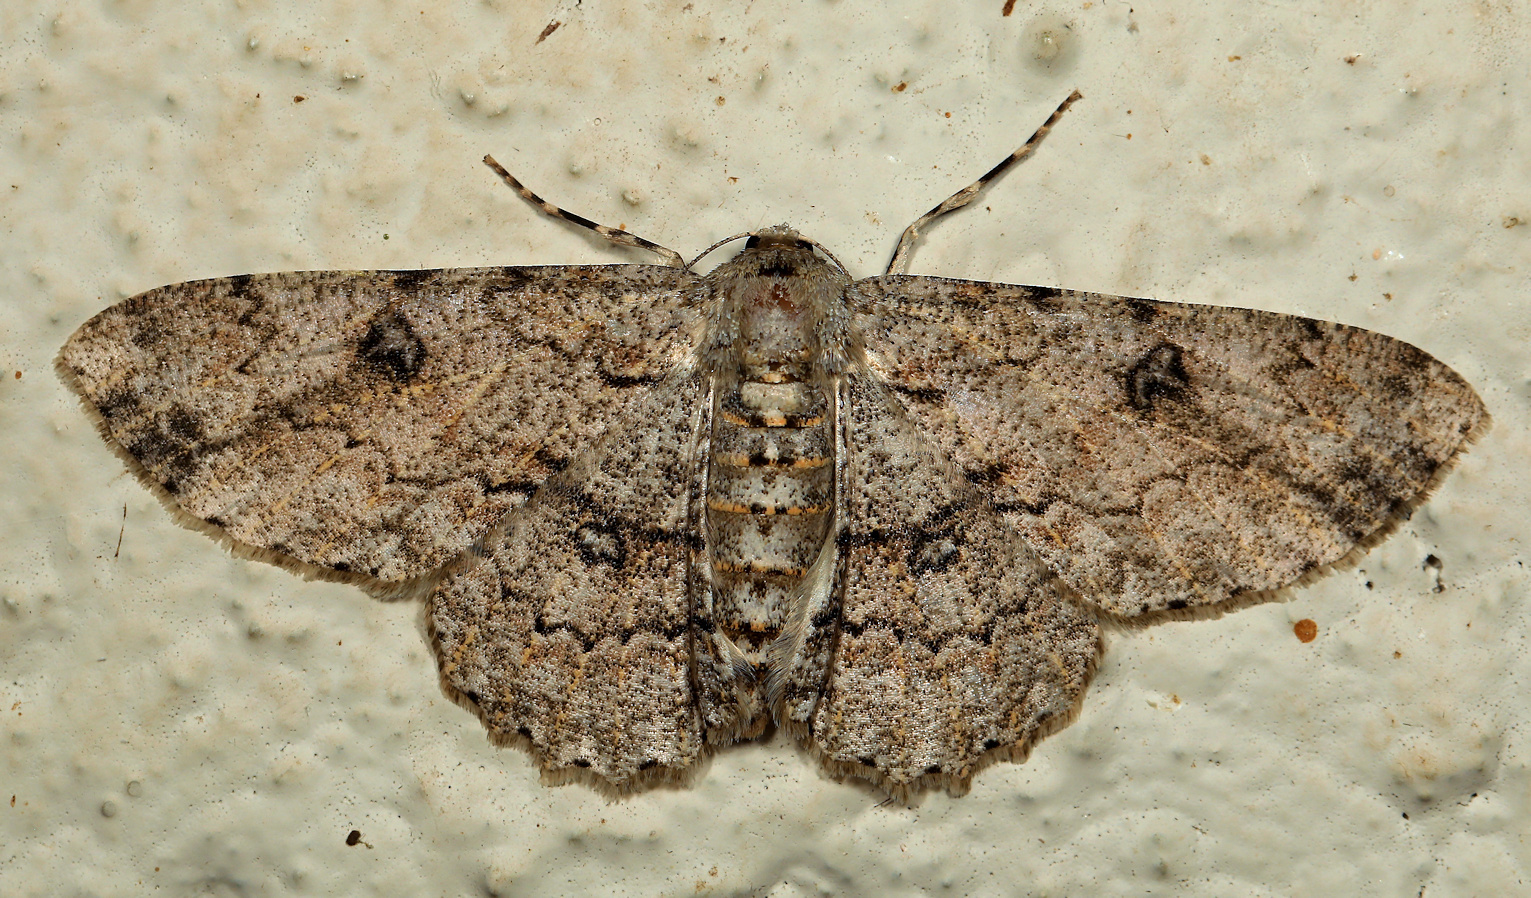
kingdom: Animalia
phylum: Arthropoda
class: Insecta
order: Lepidoptera
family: Geometridae
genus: Ascotis
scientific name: Ascotis reciprocaria
